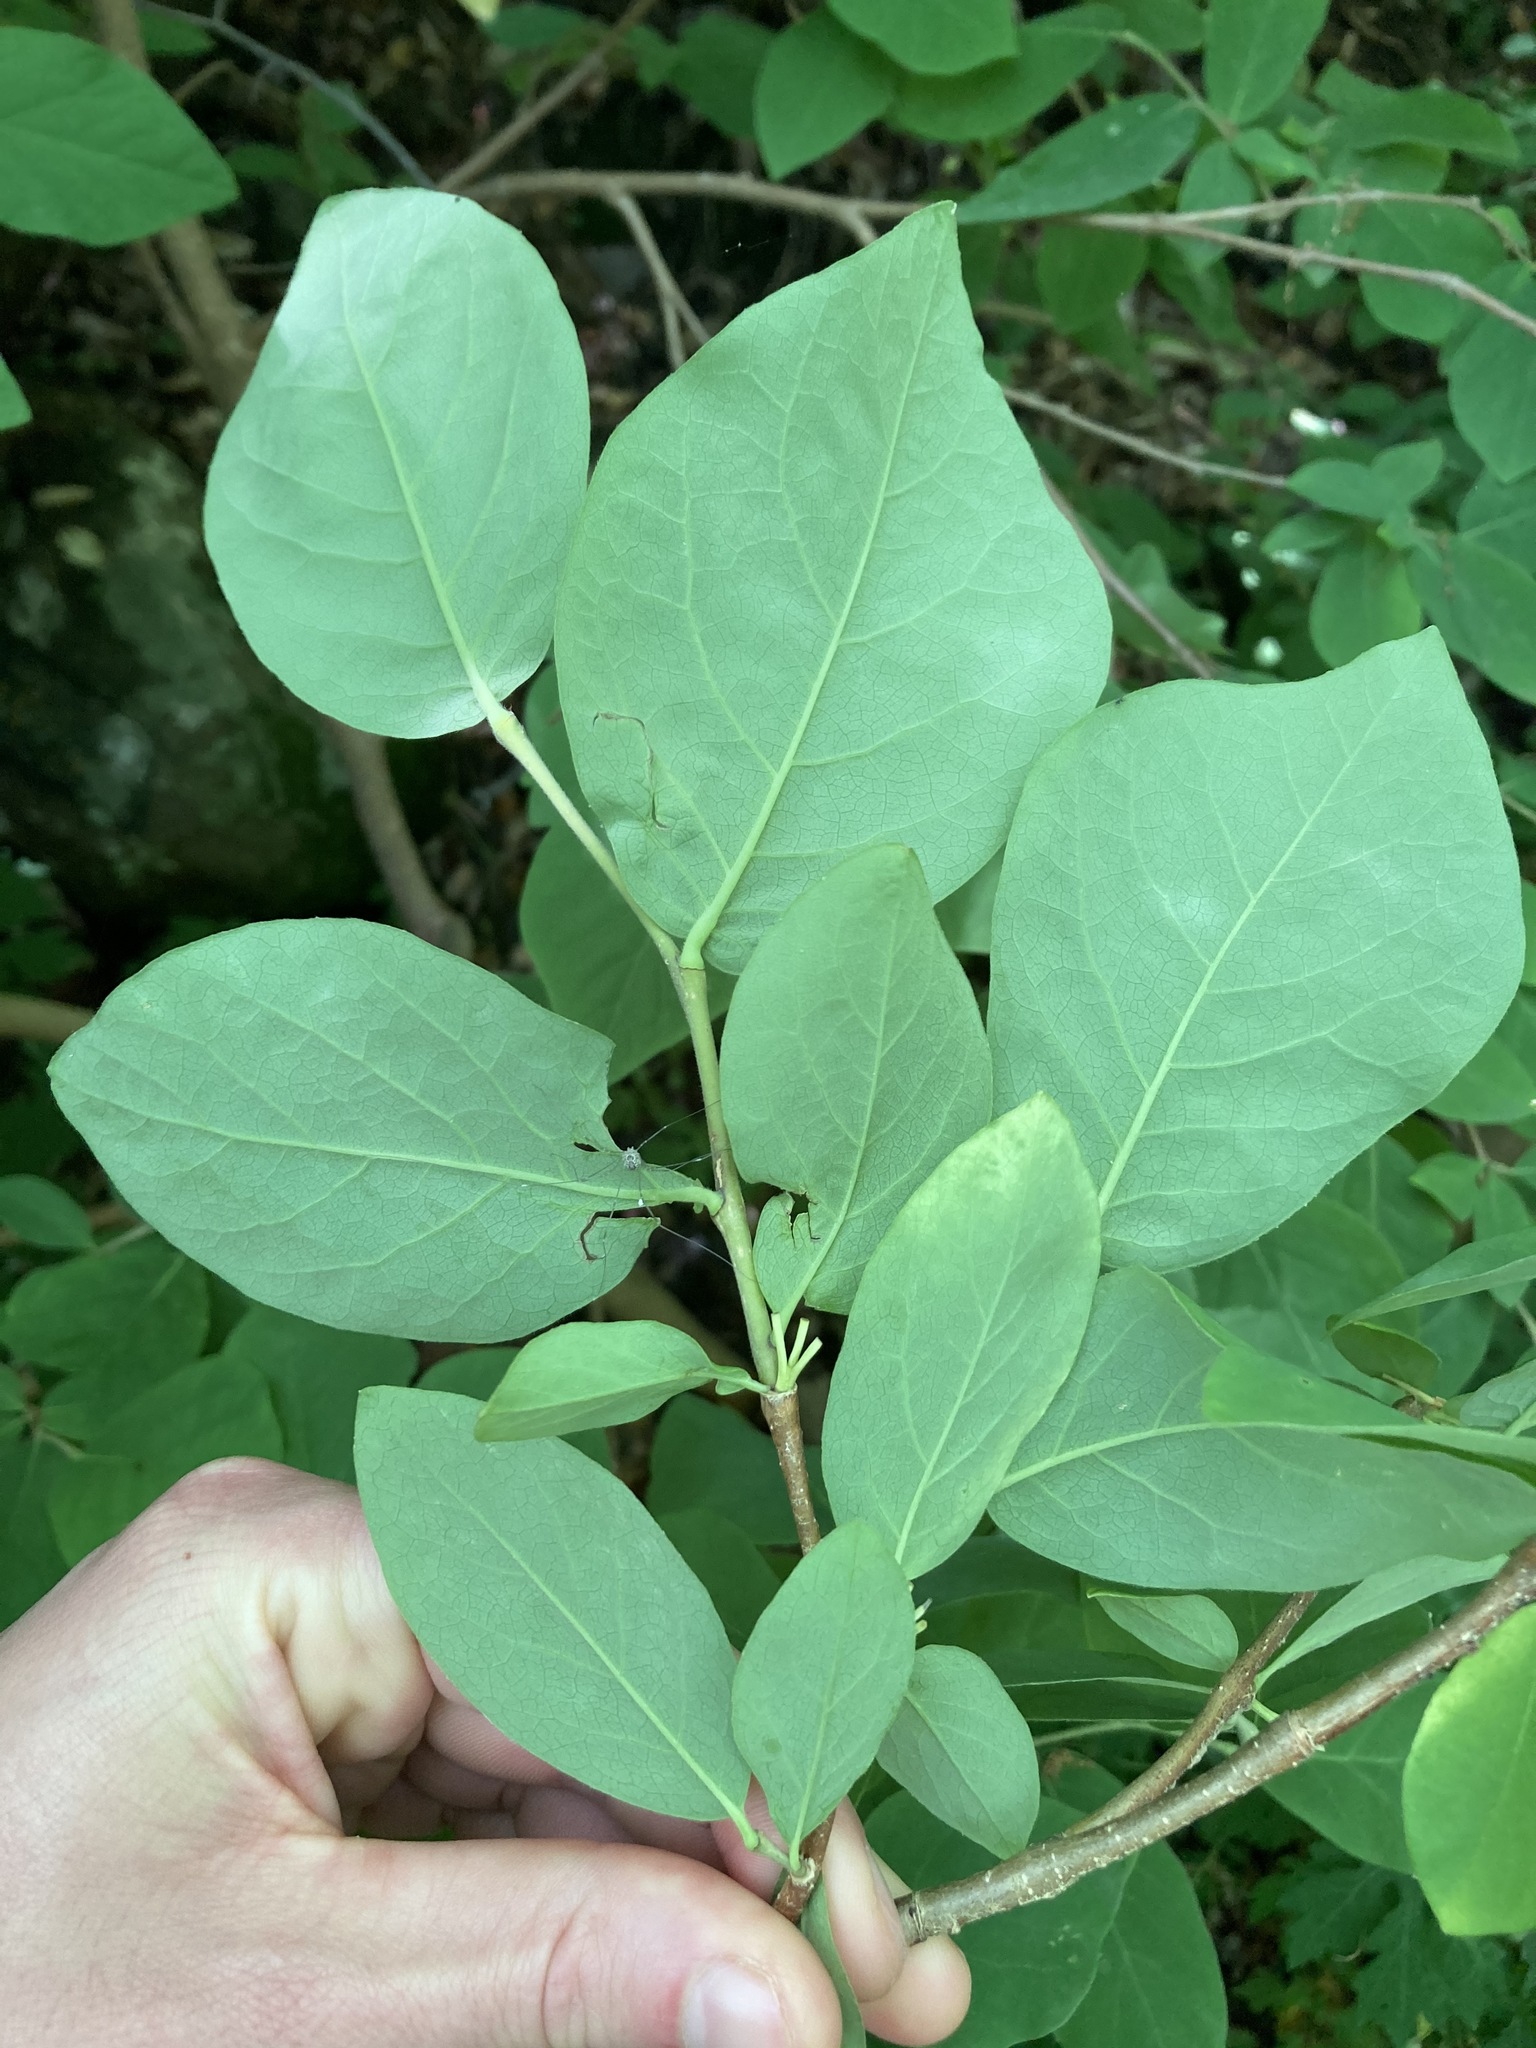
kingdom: Plantae
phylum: Tracheophyta
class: Magnoliopsida
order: Malvales
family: Thymelaeaceae
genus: Dirca
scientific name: Dirca palustris
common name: Leatherwood
